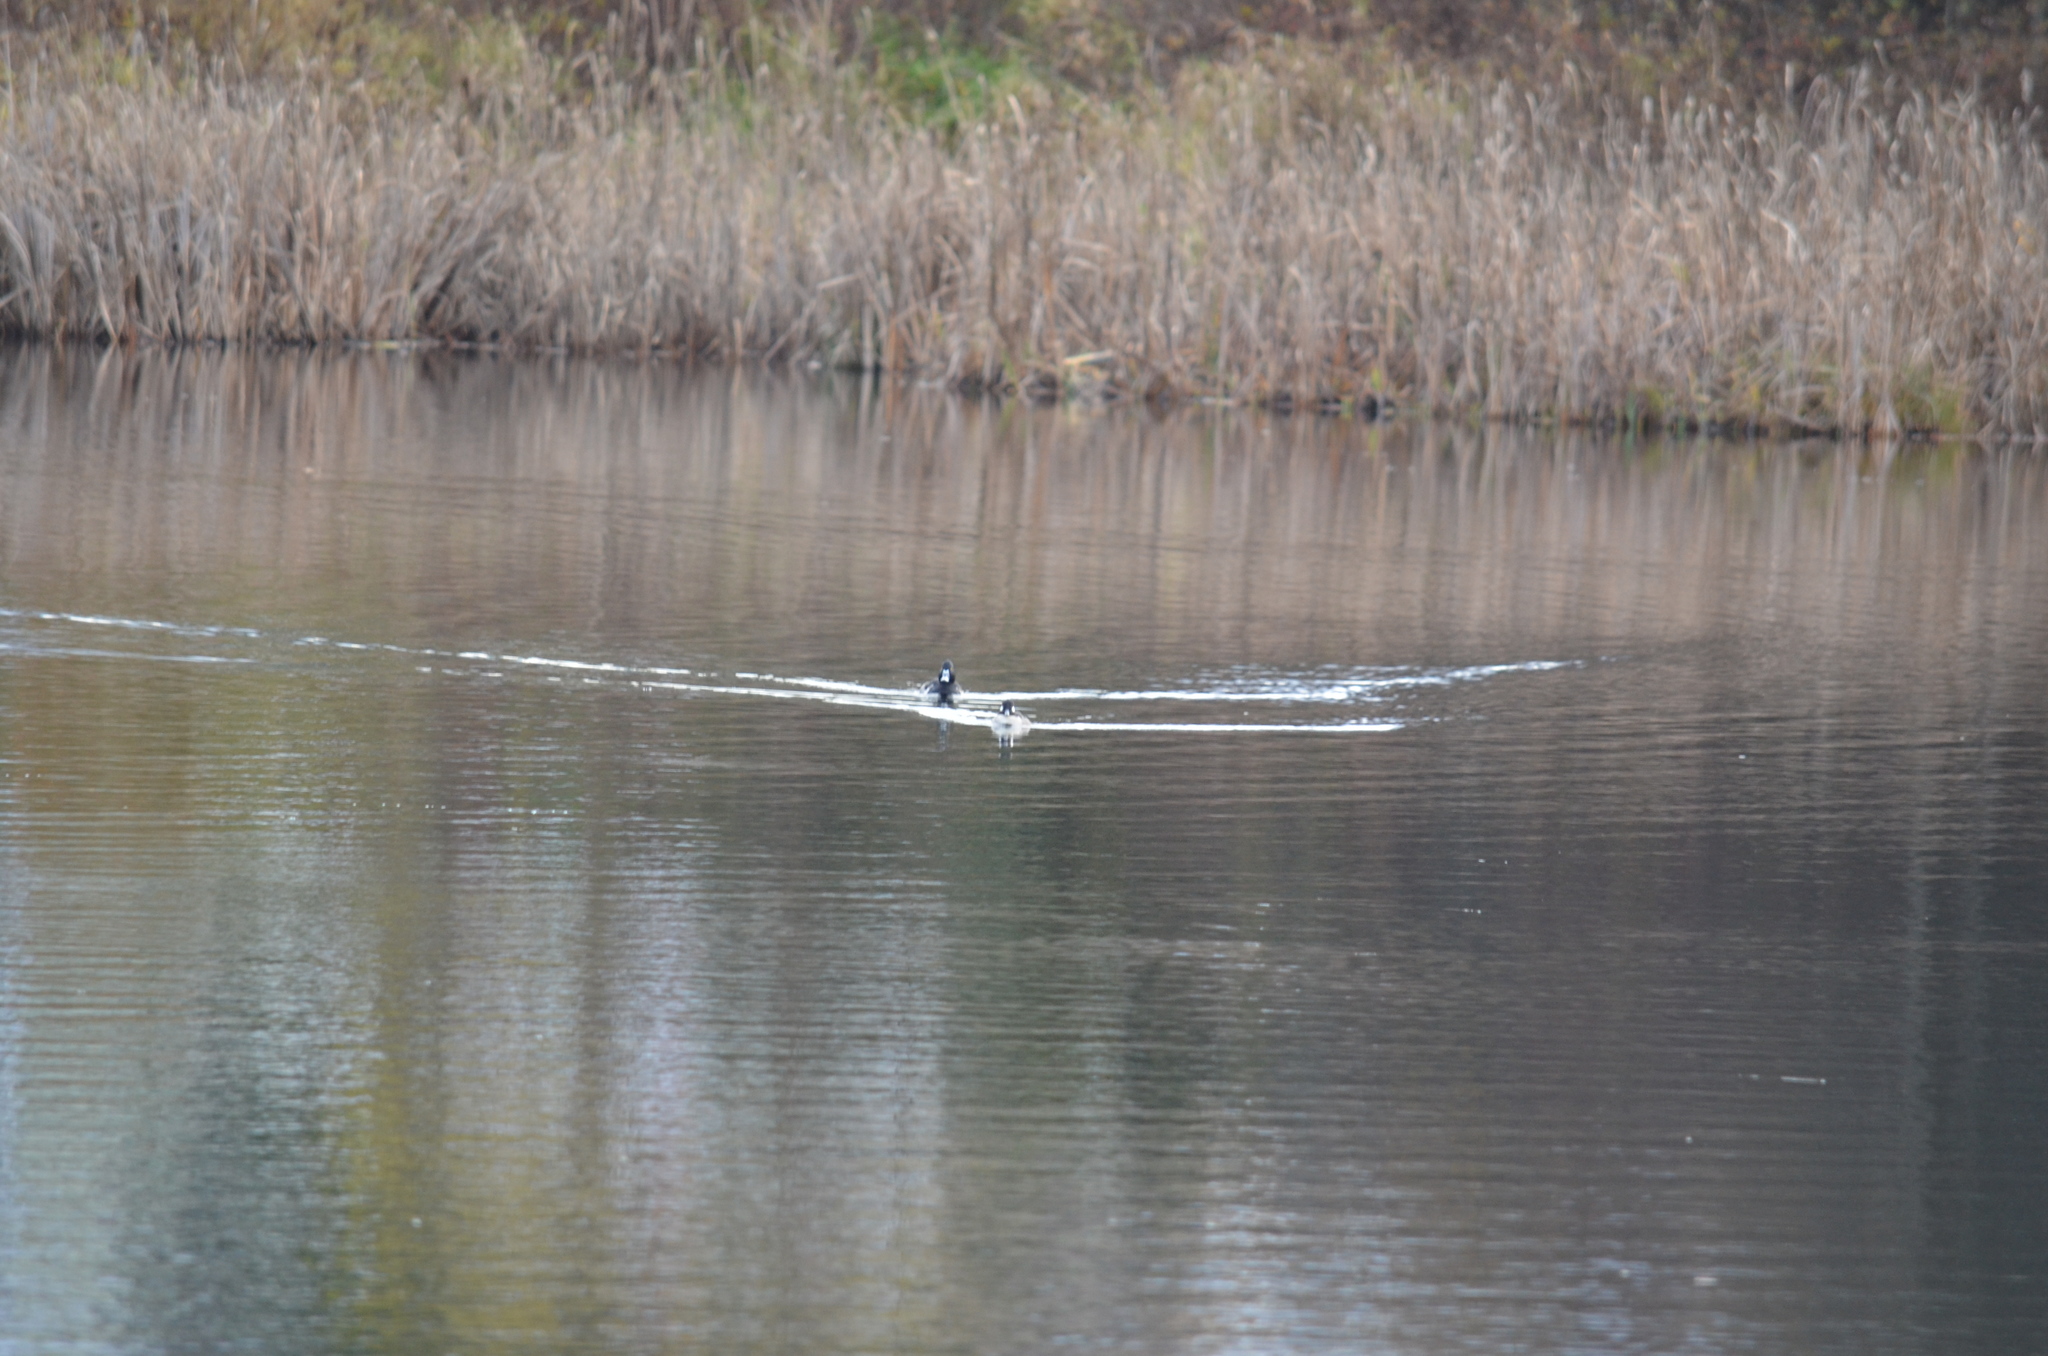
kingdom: Animalia
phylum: Chordata
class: Aves
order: Anseriformes
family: Anatidae
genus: Aythya
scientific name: Aythya collaris
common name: Ring-necked duck
